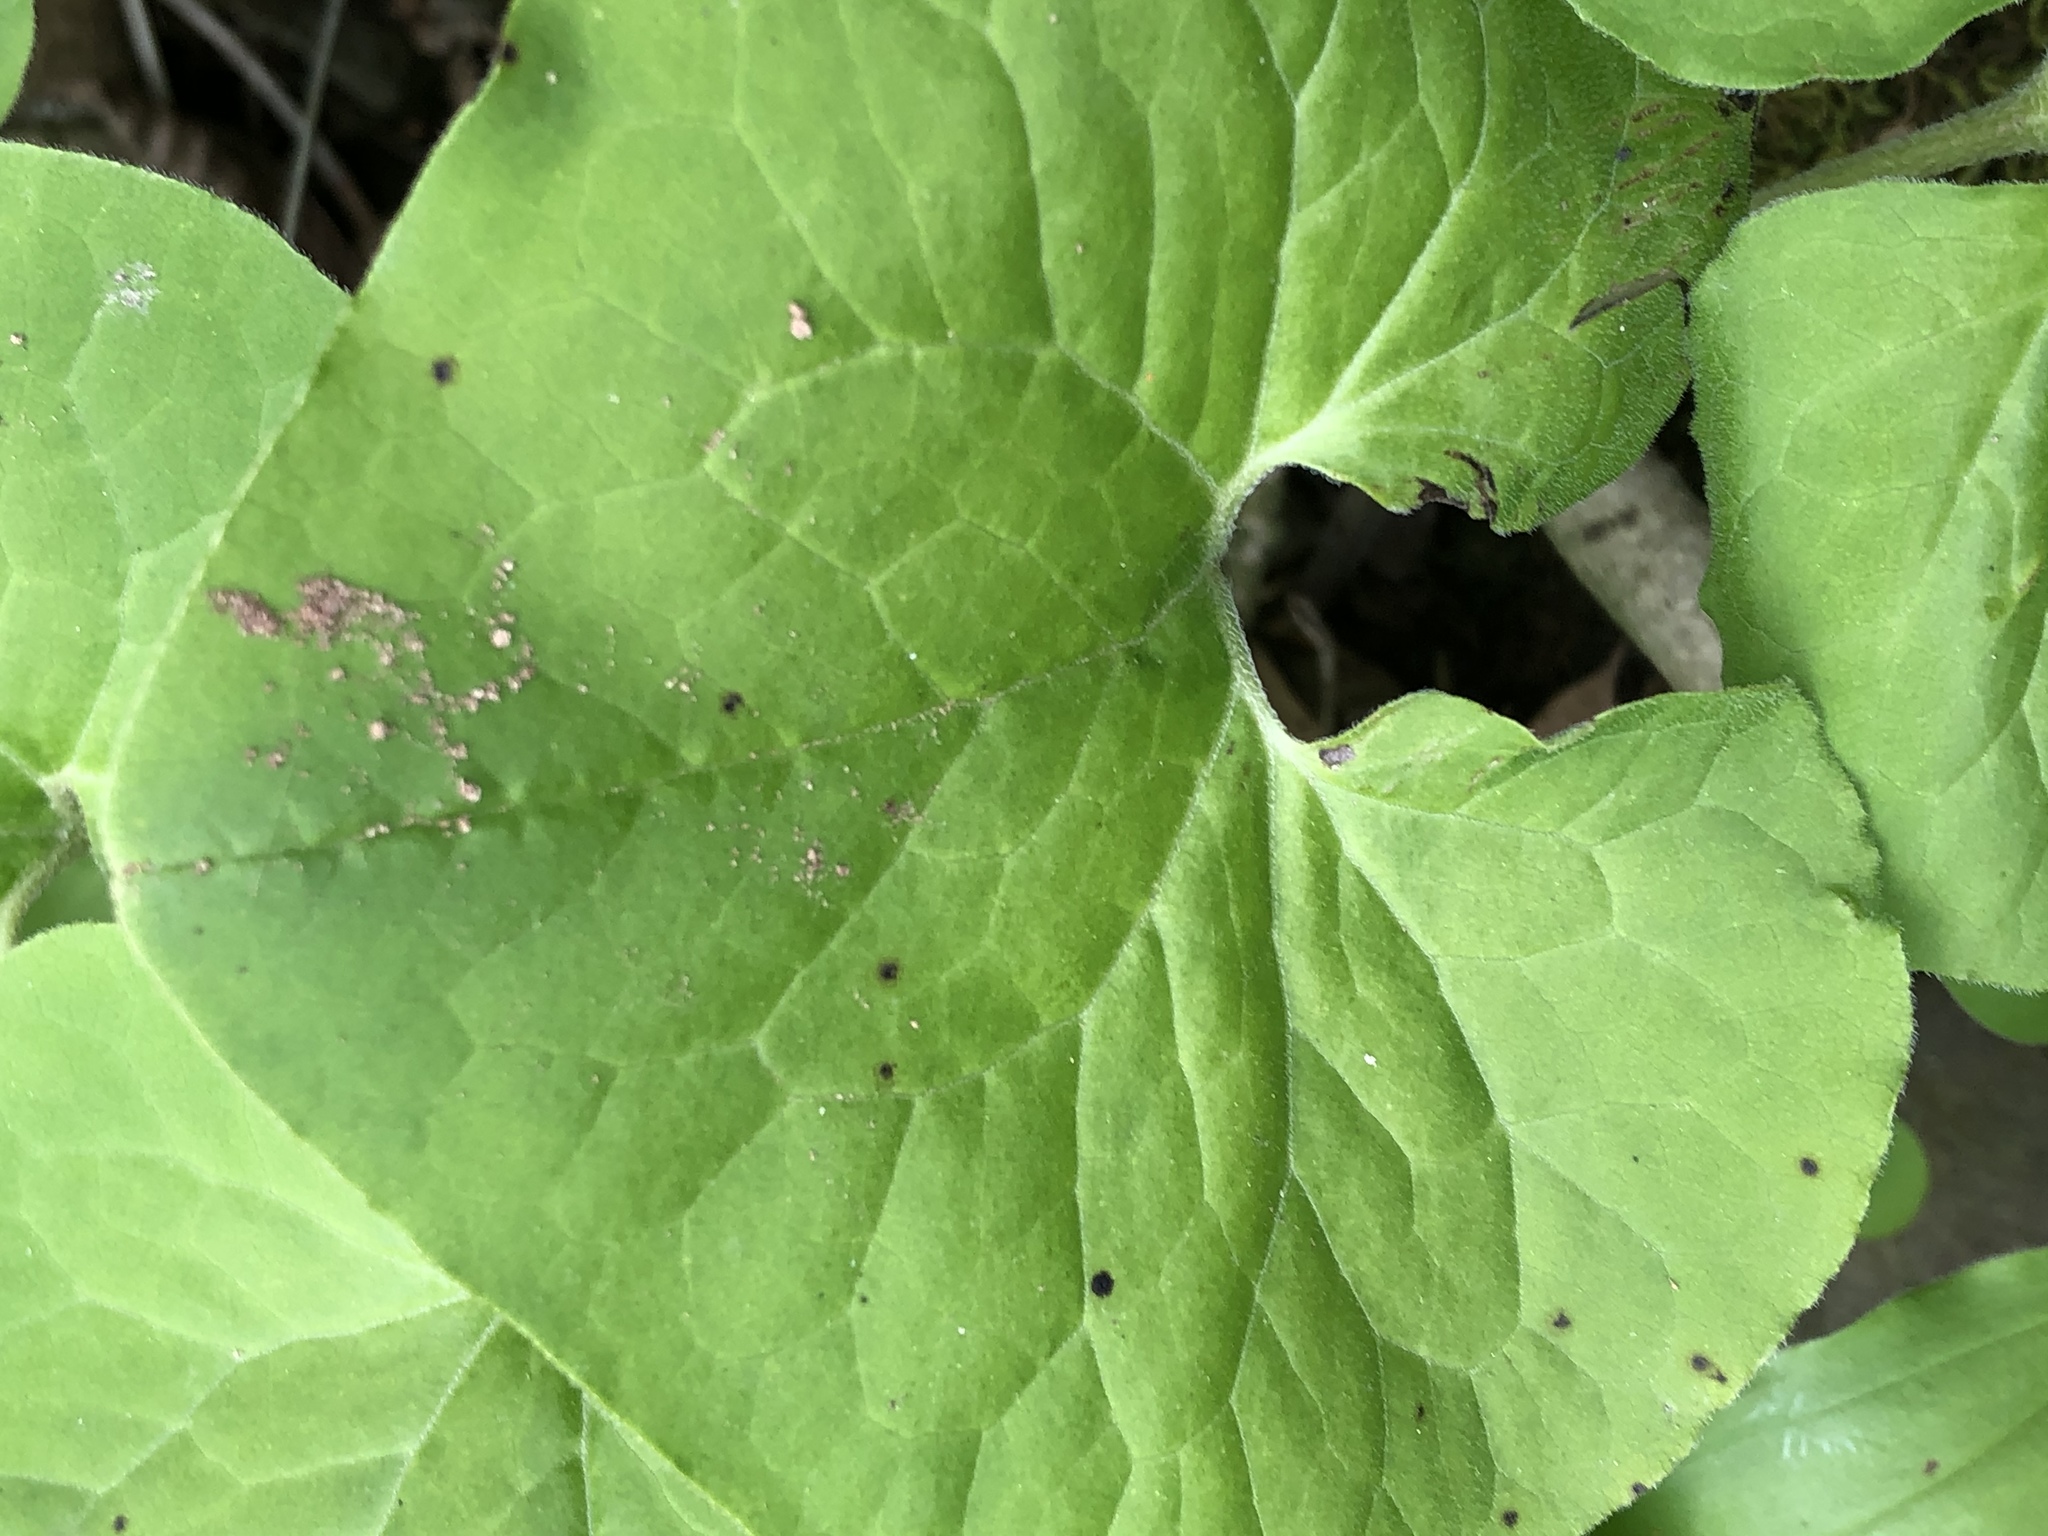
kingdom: Plantae
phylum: Tracheophyta
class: Magnoliopsida
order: Piperales
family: Aristolochiaceae
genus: Asarum
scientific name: Asarum canadense
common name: Wild ginger
